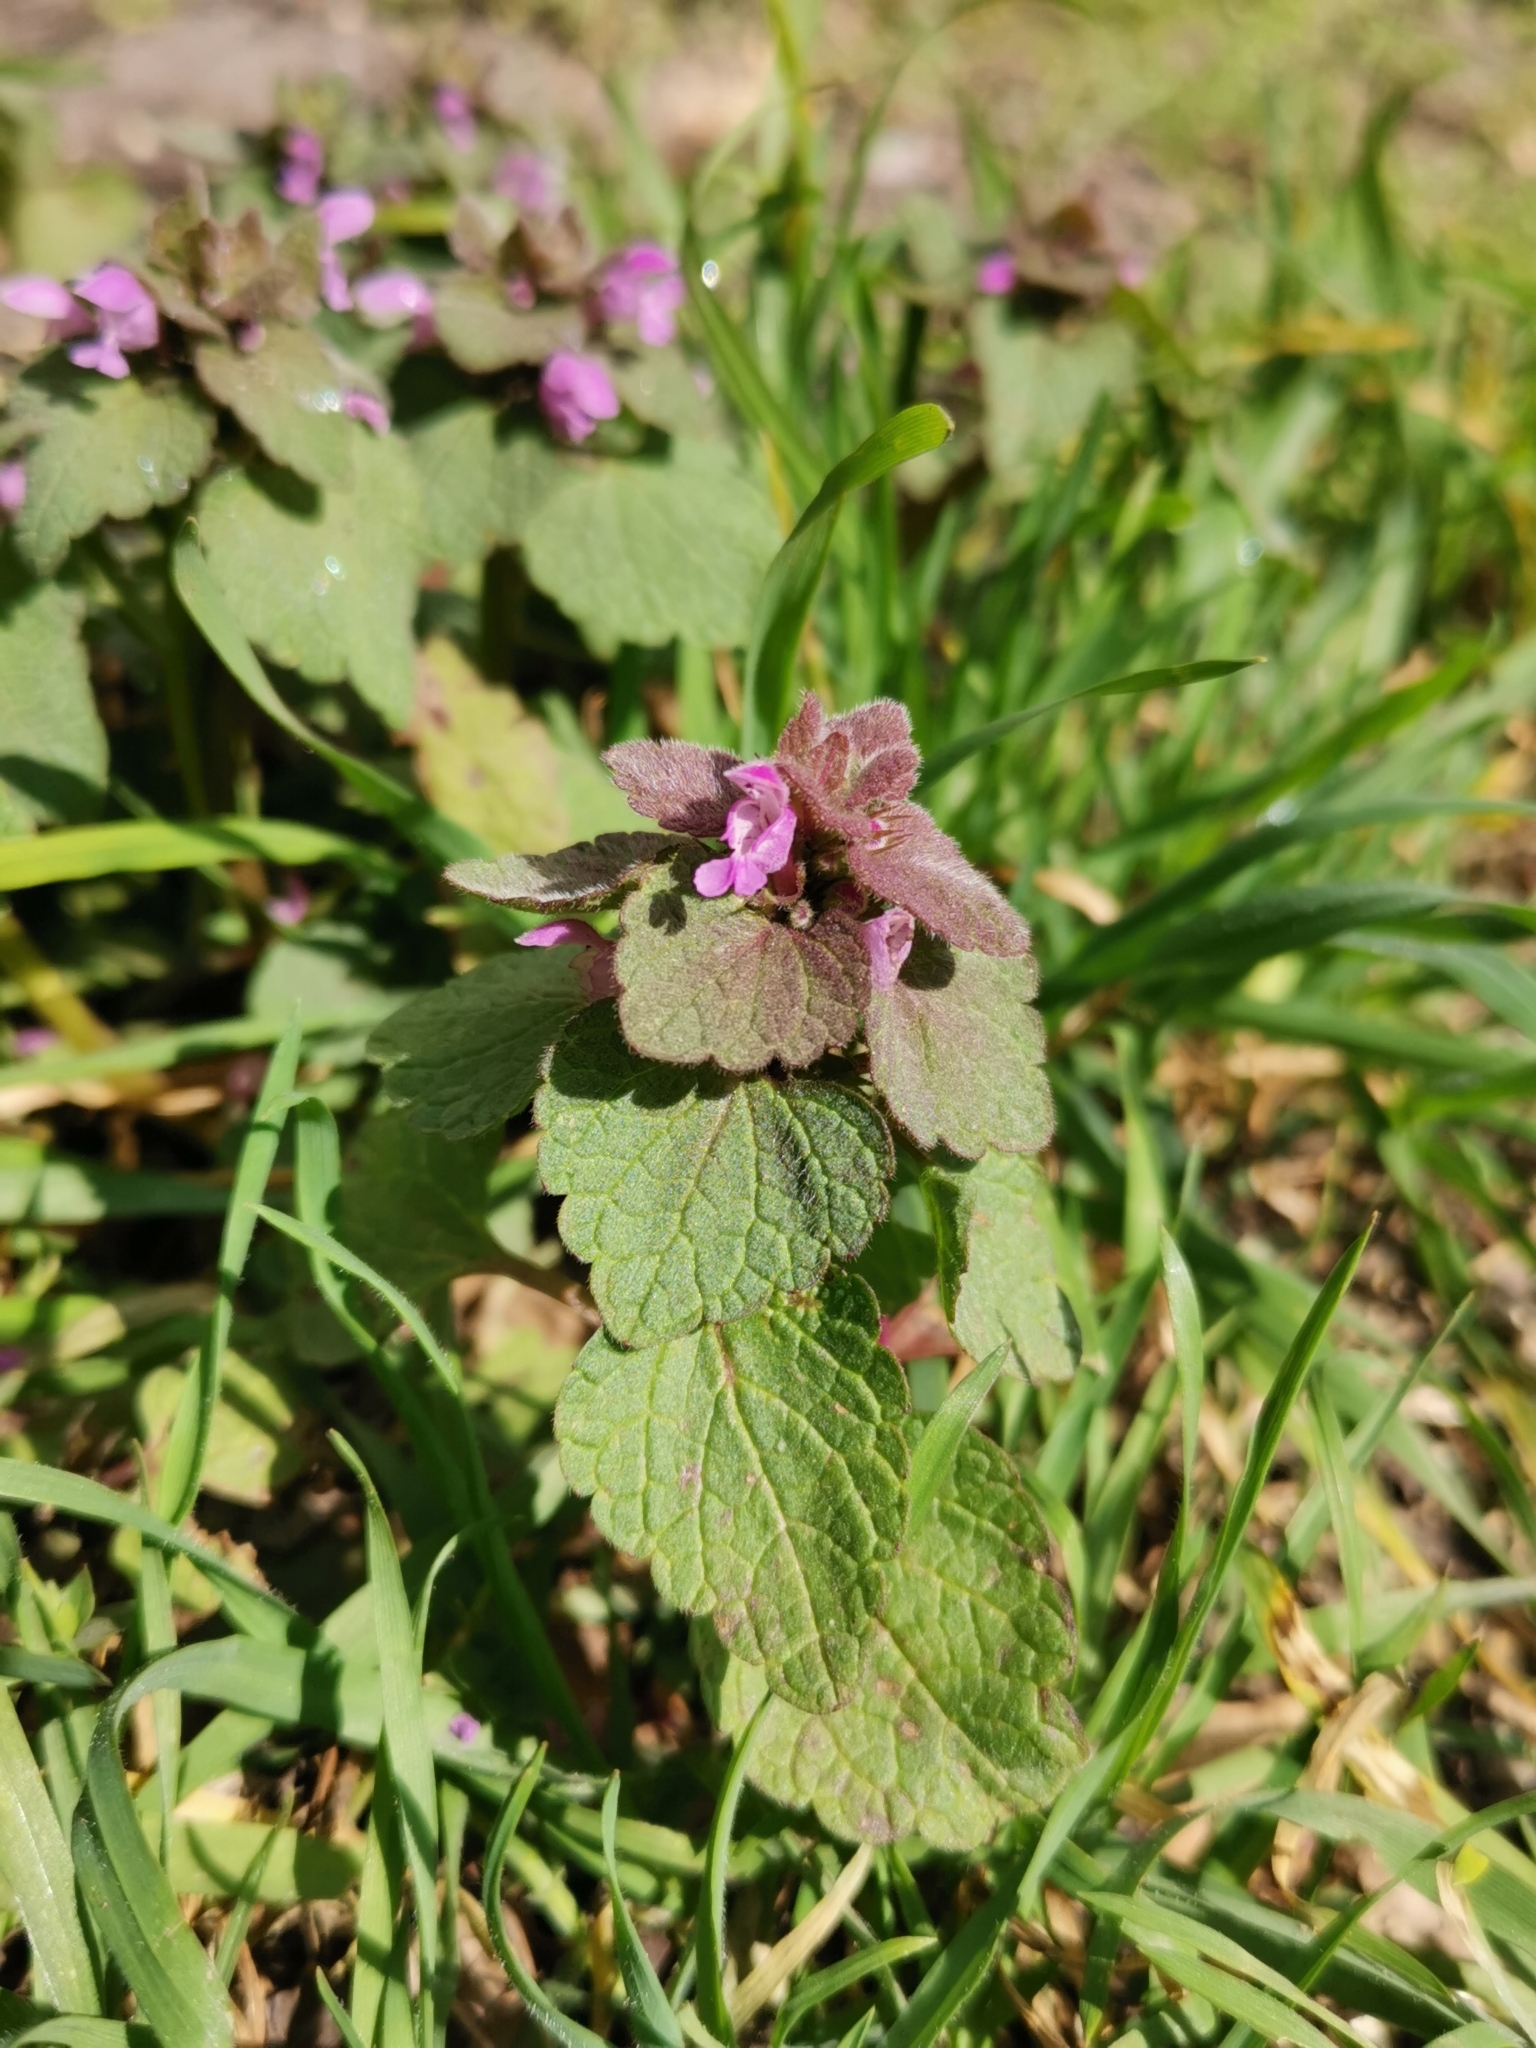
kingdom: Plantae
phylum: Tracheophyta
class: Magnoliopsida
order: Lamiales
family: Lamiaceae
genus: Lamium
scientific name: Lamium purpureum
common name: Red dead-nettle
